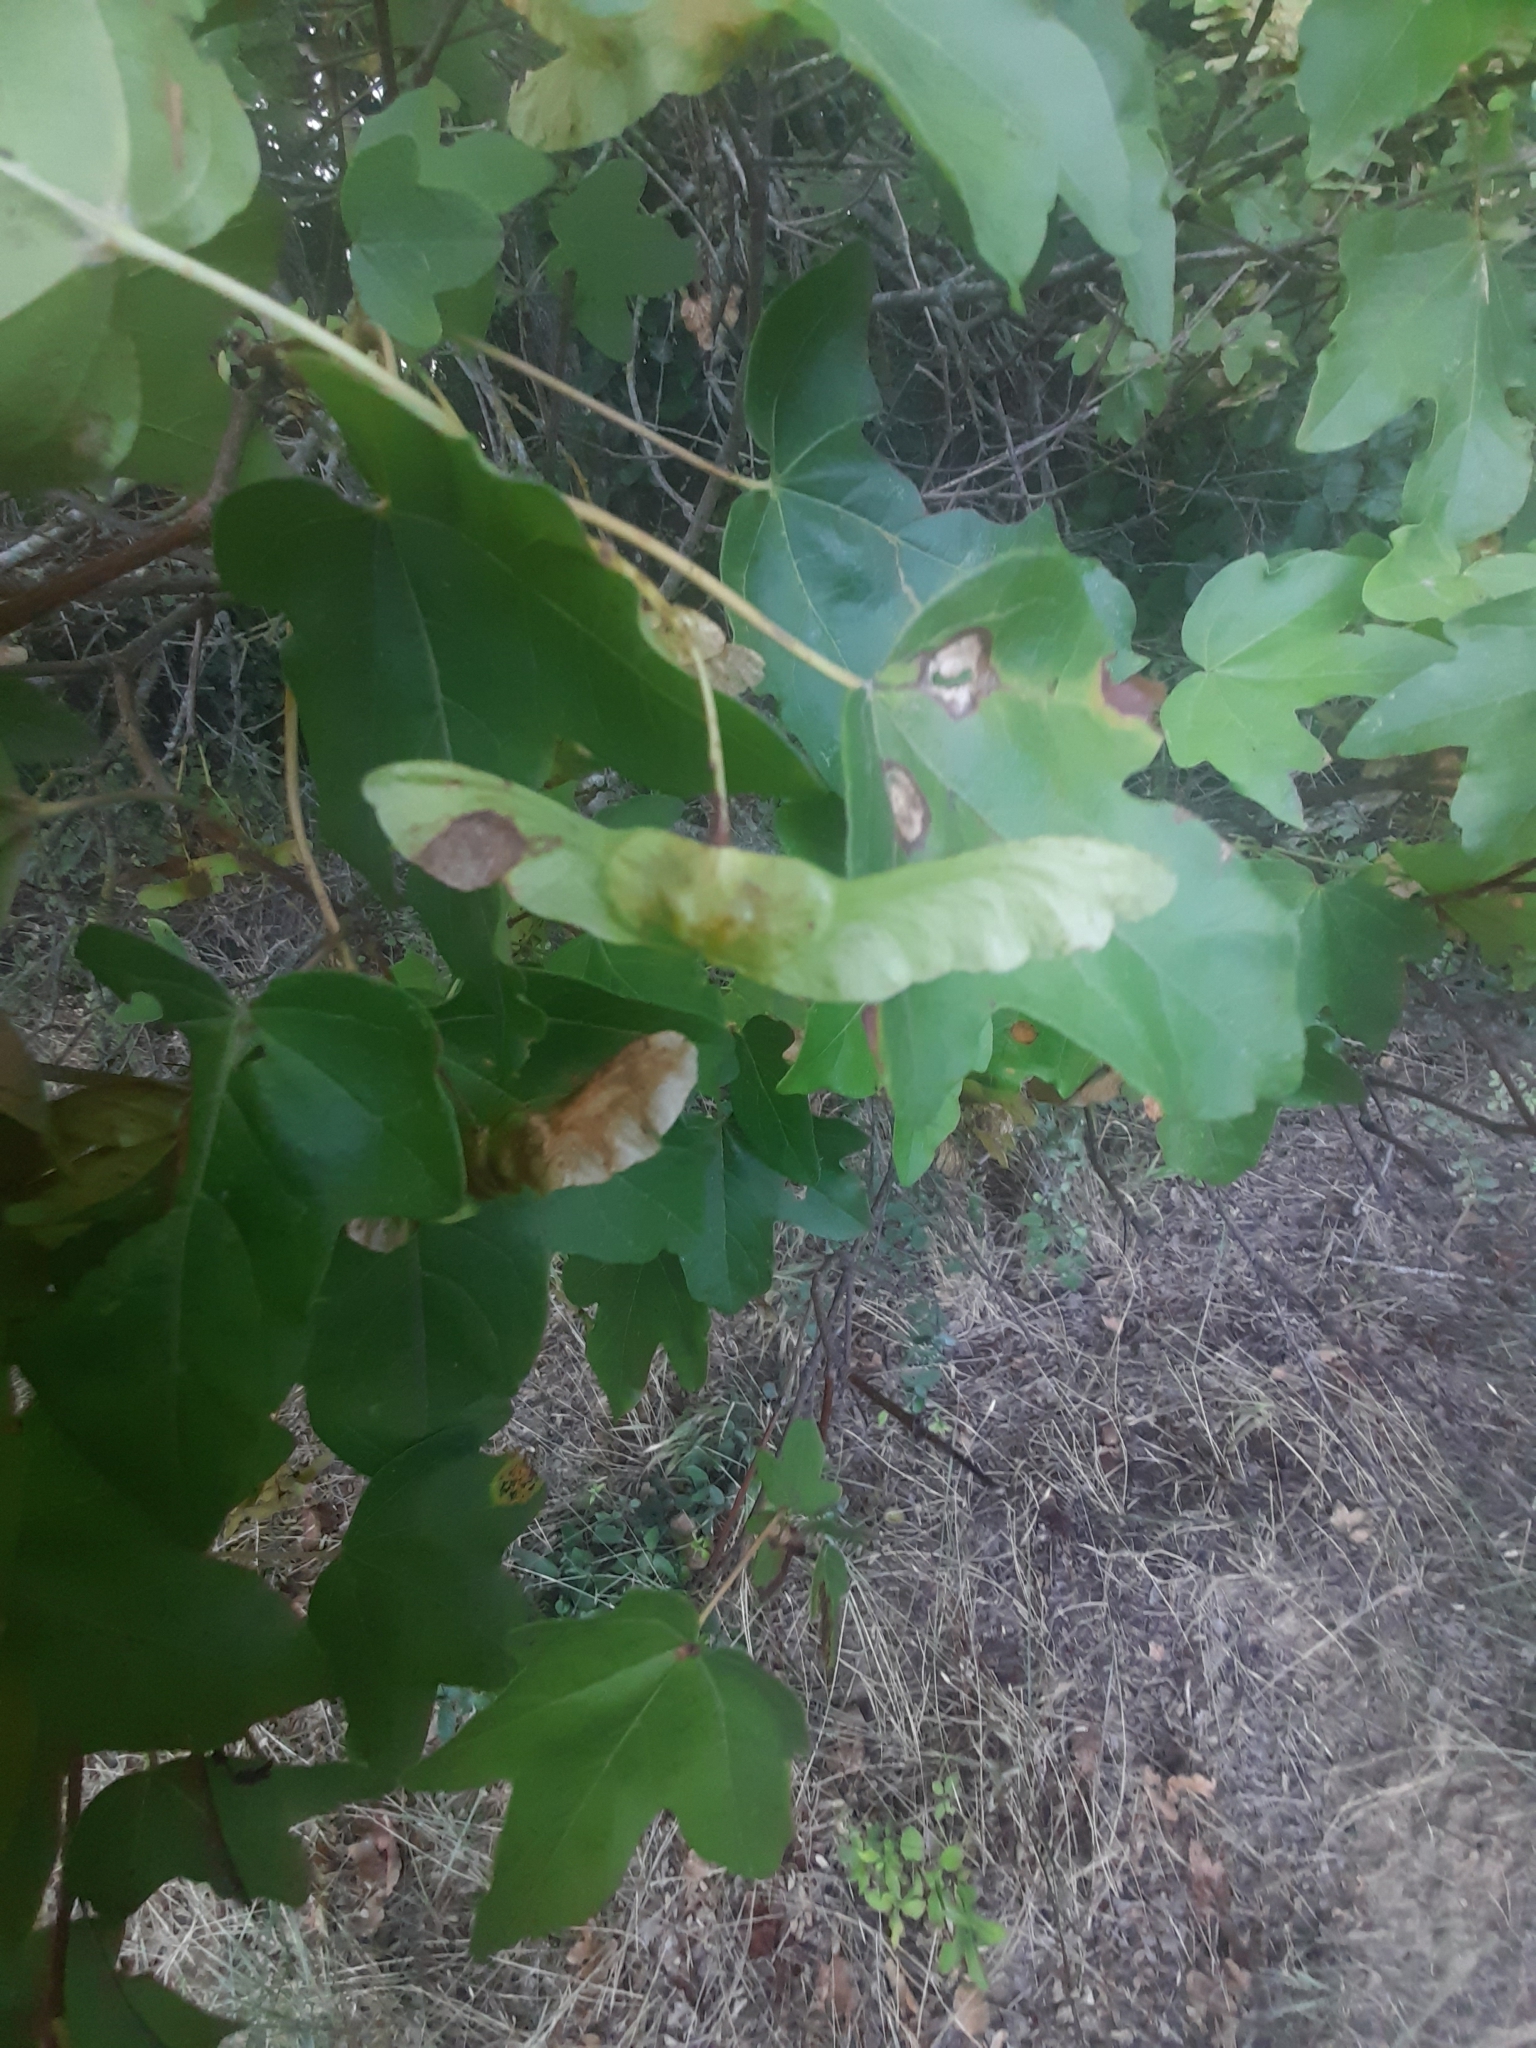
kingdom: Plantae
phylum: Tracheophyta
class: Magnoliopsida
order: Sapindales
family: Sapindaceae
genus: Acer
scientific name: Acer campestre
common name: Field maple
